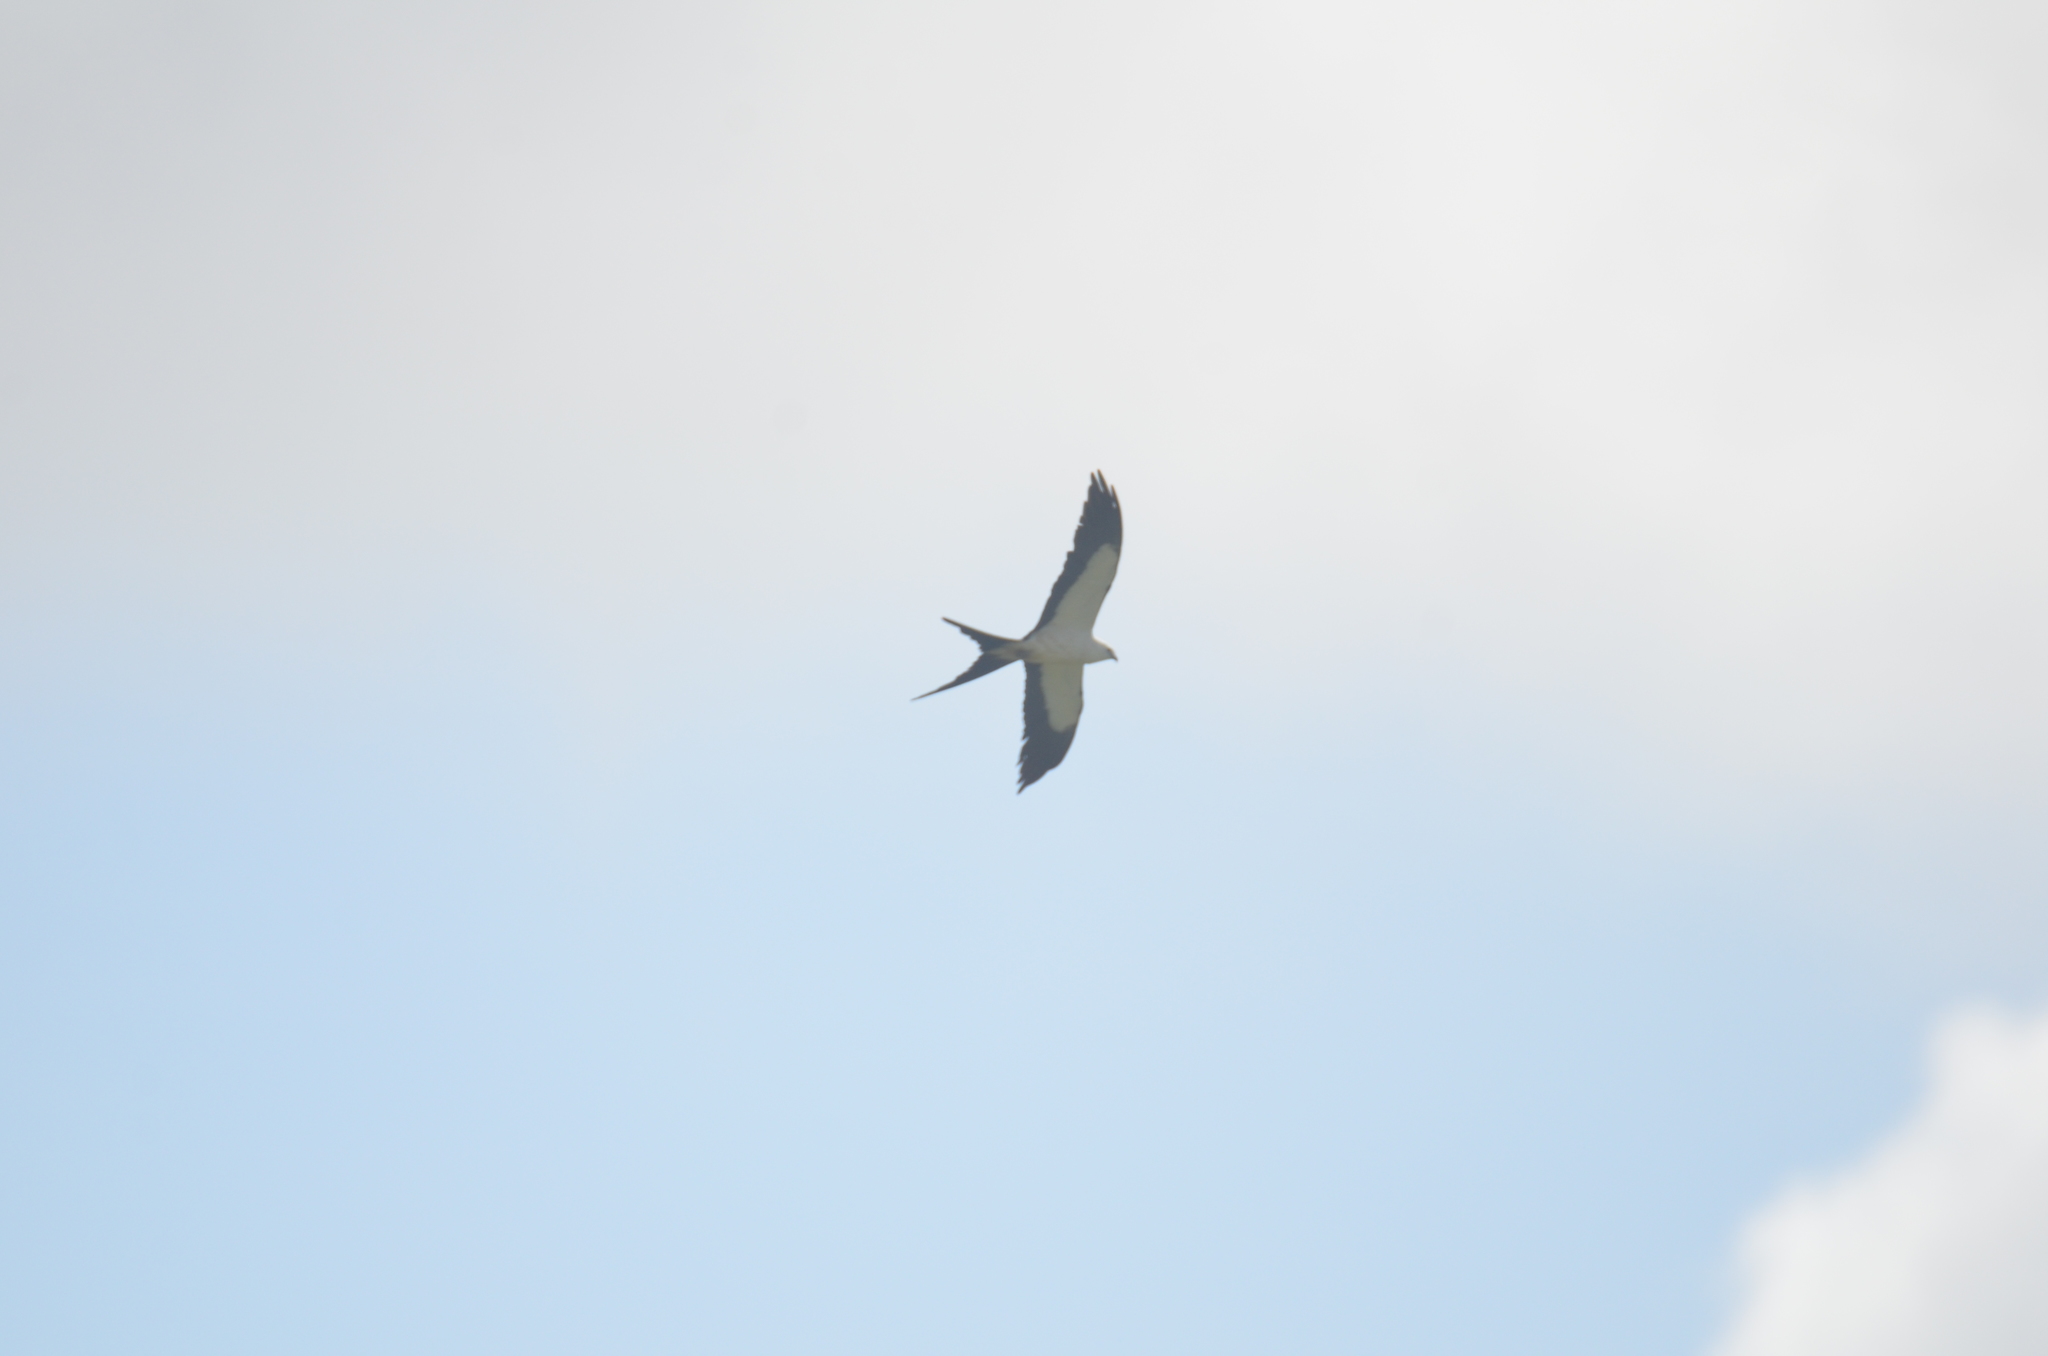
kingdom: Animalia
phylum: Chordata
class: Aves
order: Accipitriformes
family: Accipitridae
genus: Elanoides
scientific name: Elanoides forficatus
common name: Swallow-tailed kite
